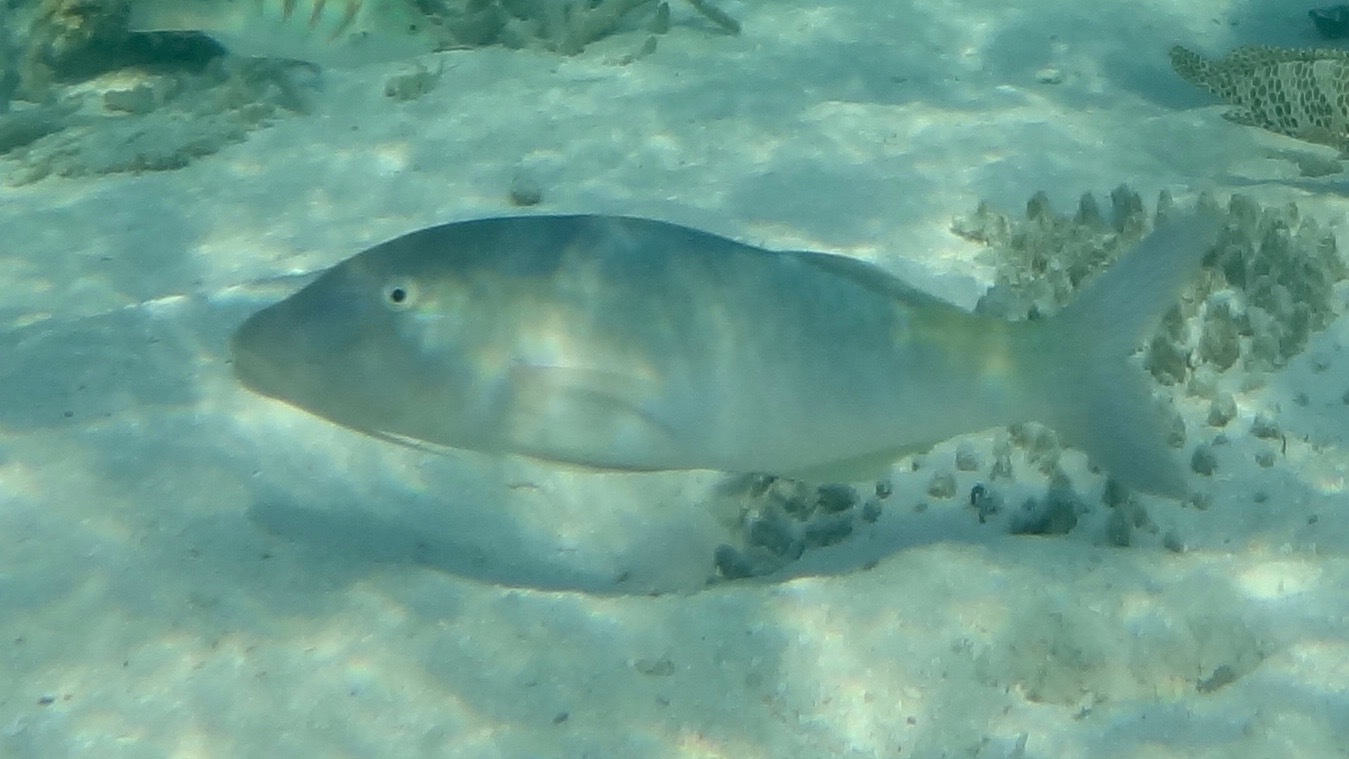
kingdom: Animalia
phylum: Chordata
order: Perciformes
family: Mullidae
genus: Parupeneus
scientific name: Parupeneus cyclostomus
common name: Goldsaddle goatfish
